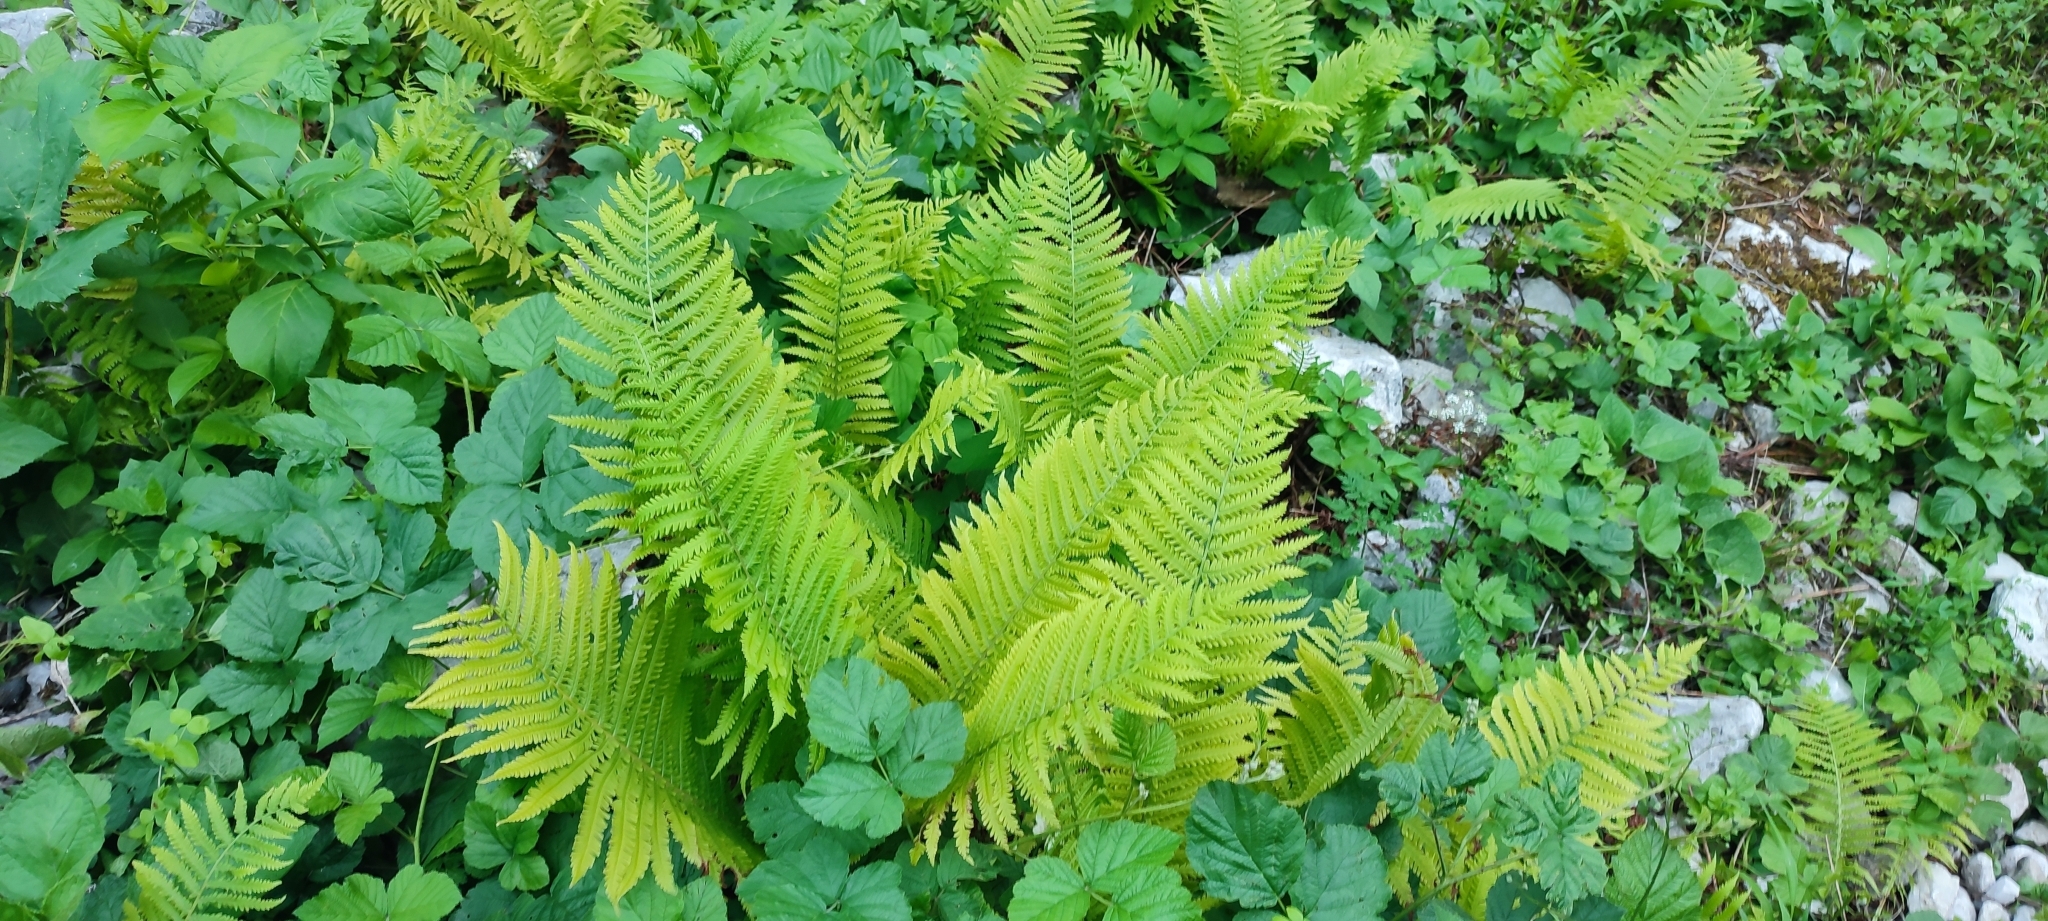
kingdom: Plantae
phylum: Tracheophyta
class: Polypodiopsida
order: Polypodiales
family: Onocleaceae
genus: Matteuccia
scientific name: Matteuccia struthiopteris
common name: Ostrich fern
